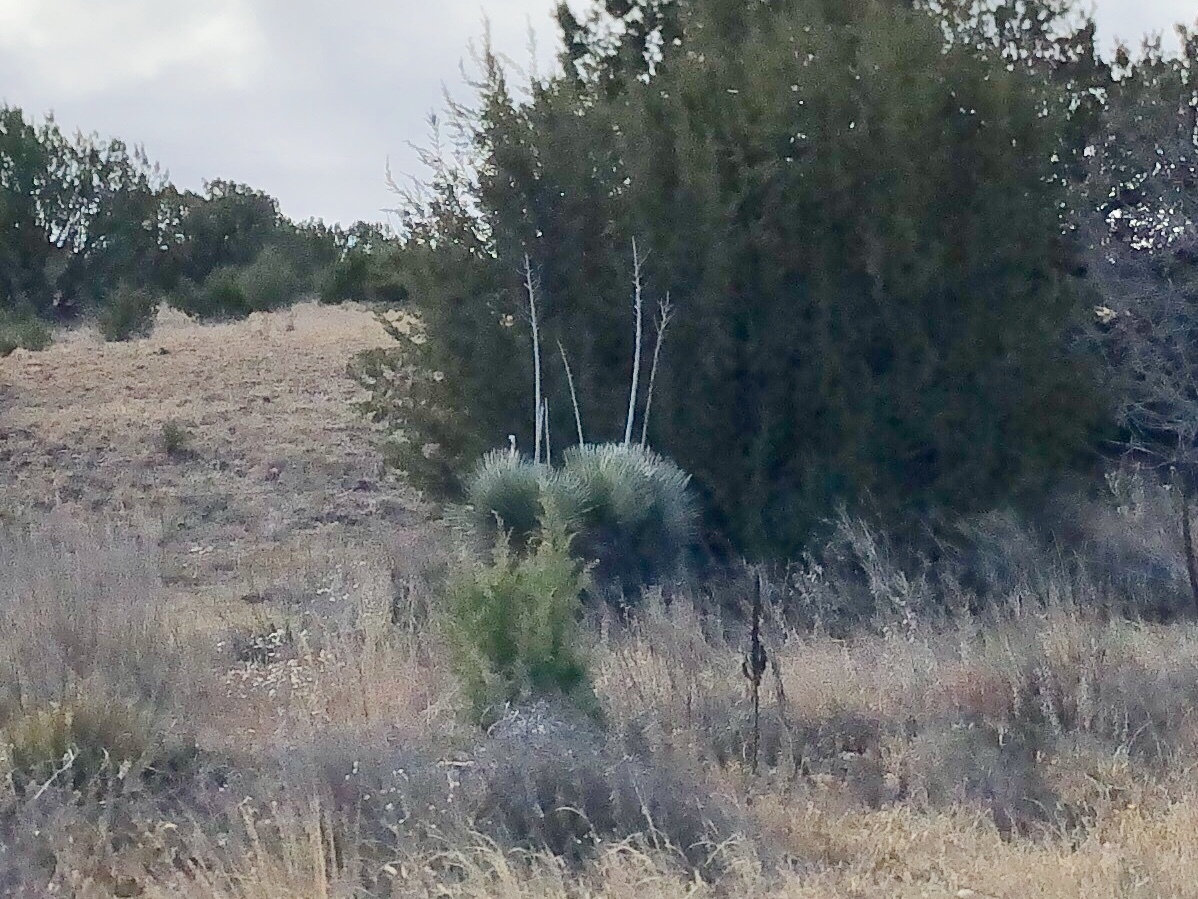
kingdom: Plantae
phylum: Tracheophyta
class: Liliopsida
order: Asparagales
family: Asparagaceae
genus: Yucca
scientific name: Yucca elata
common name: Palmella
